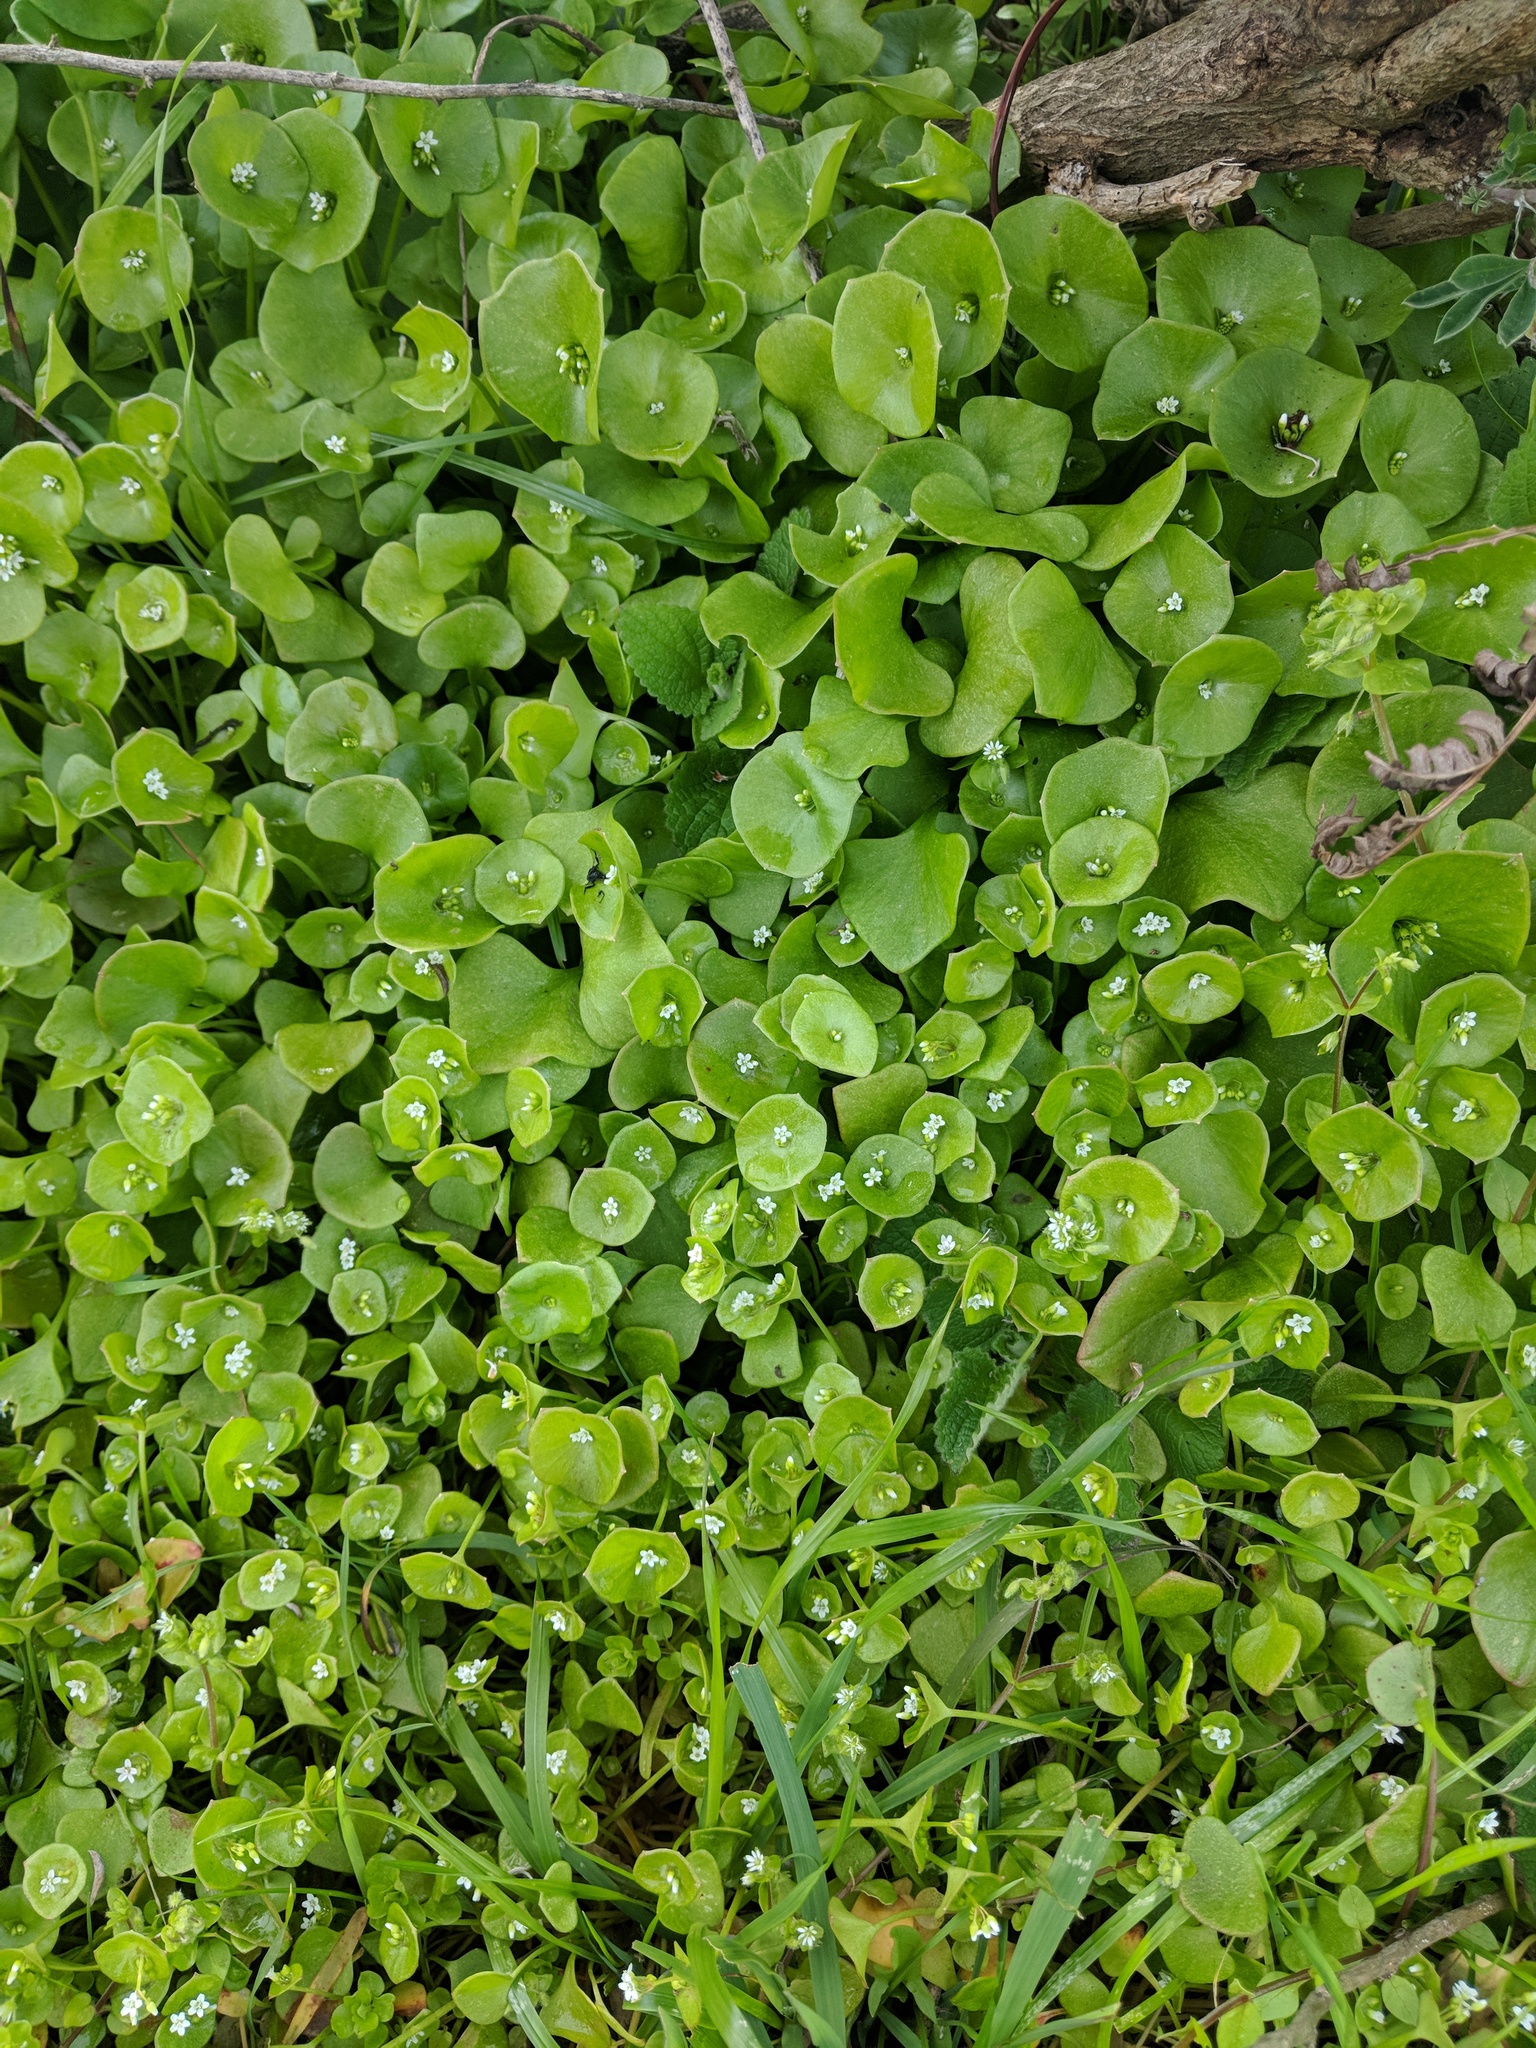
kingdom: Plantae
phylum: Tracheophyta
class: Magnoliopsida
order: Caryophyllales
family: Montiaceae
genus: Claytonia
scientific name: Claytonia perfoliata
